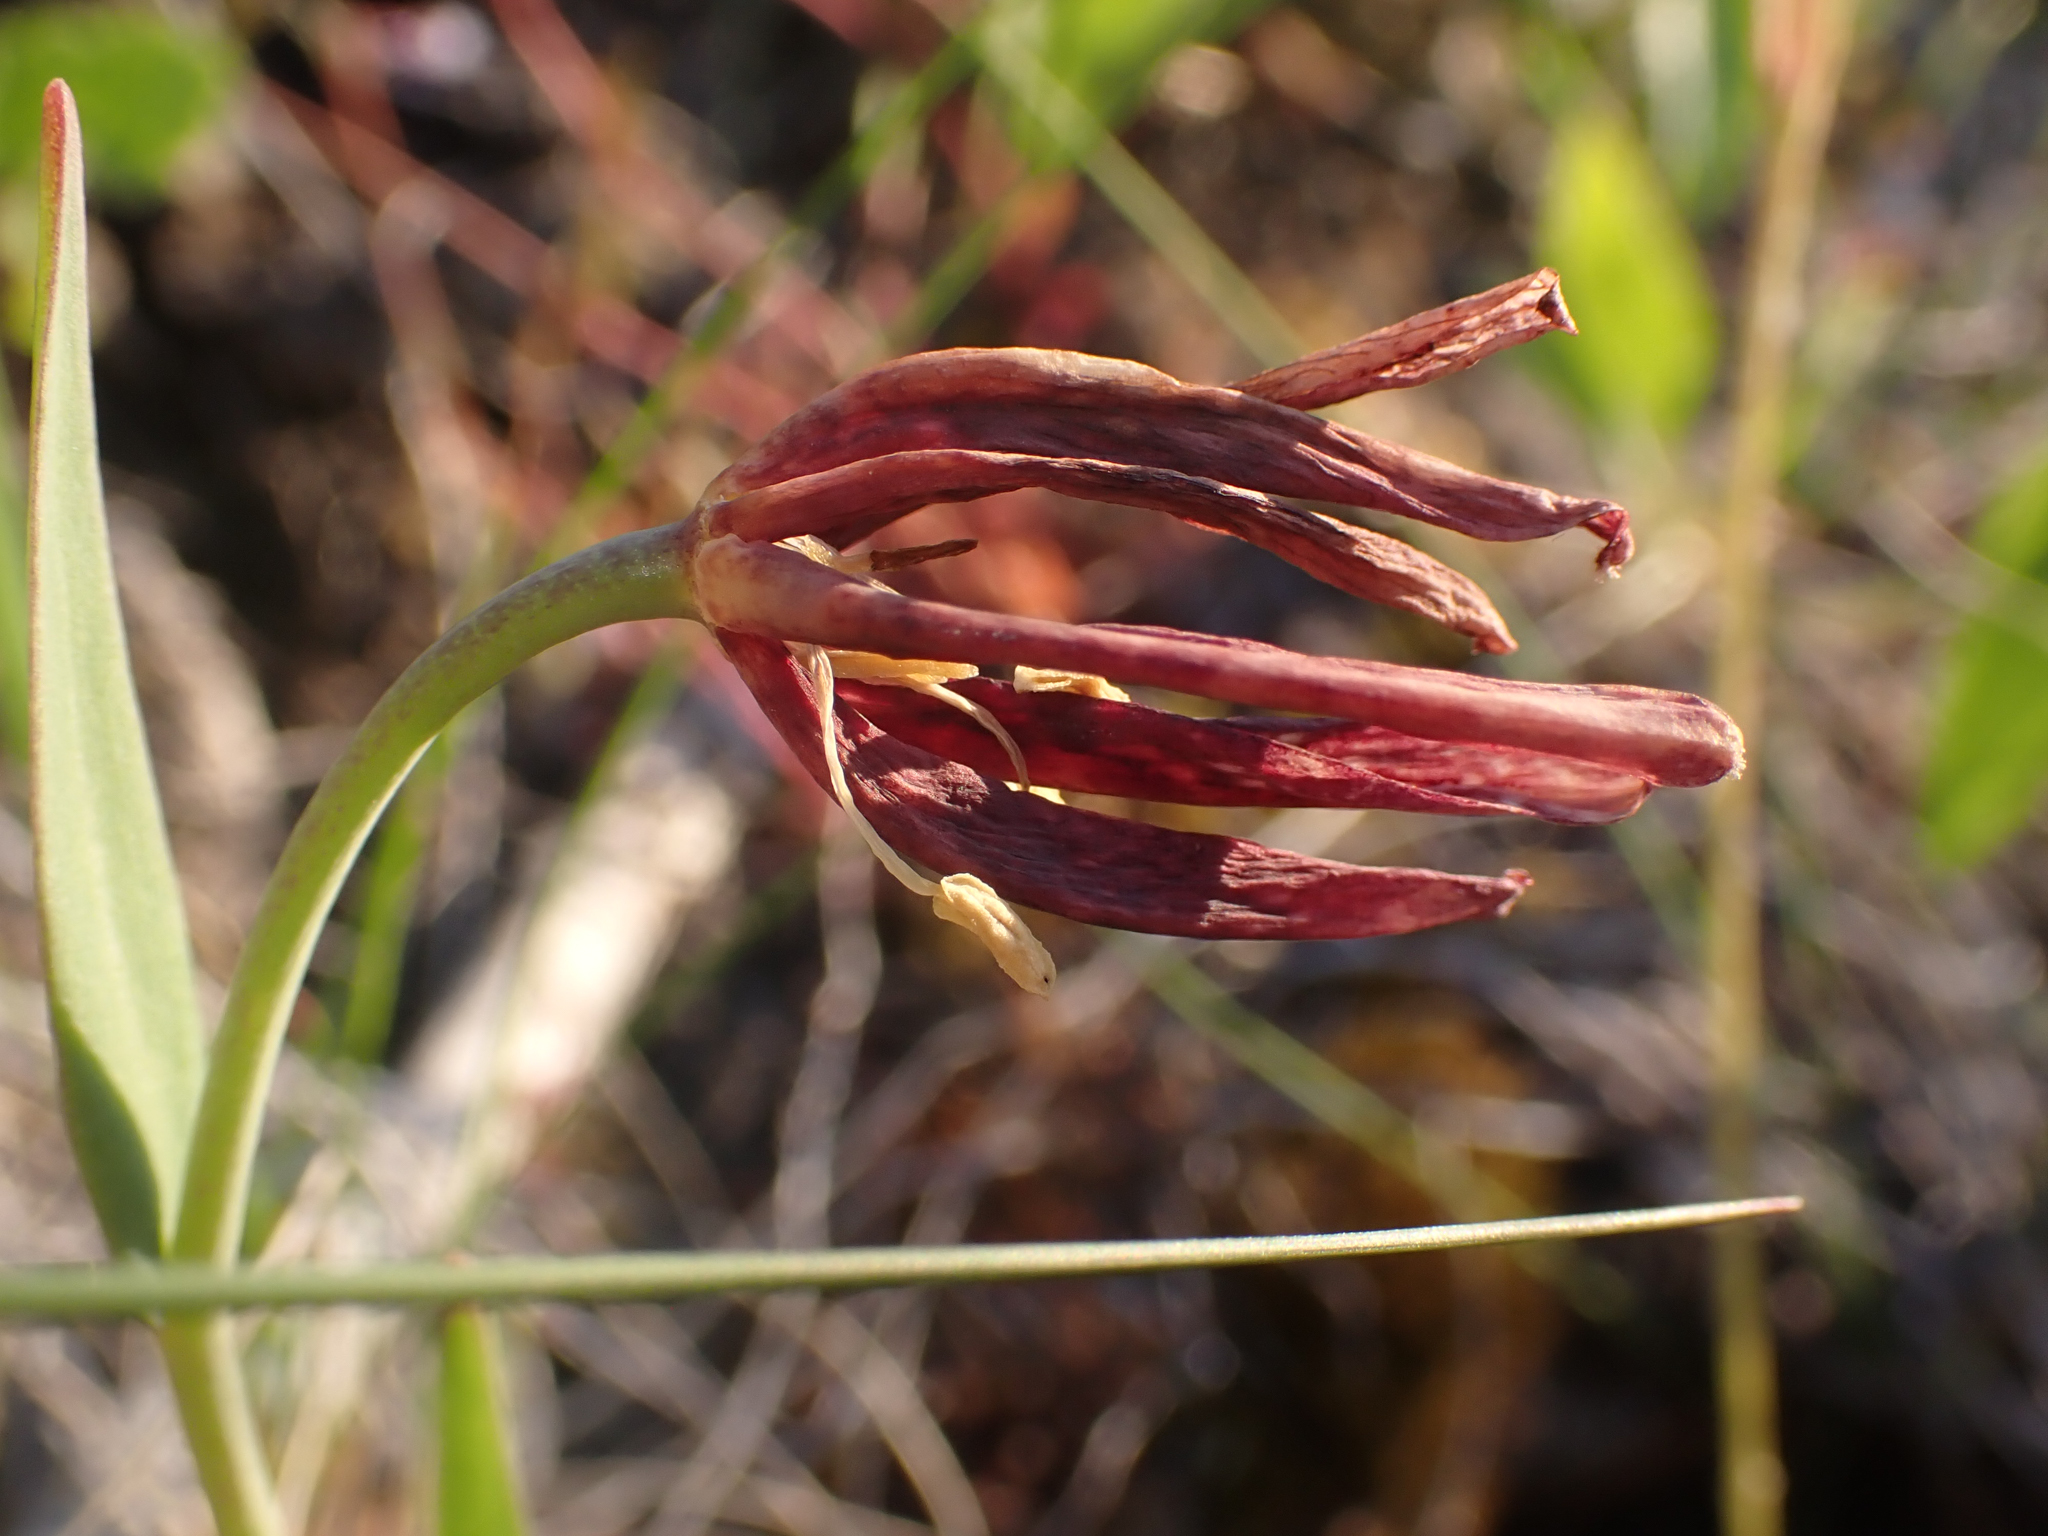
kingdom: Plantae
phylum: Tracheophyta
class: Liliopsida
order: Liliales
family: Liliaceae
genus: Fritillaria
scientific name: Fritillaria affinis
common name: Ojai fritillary
